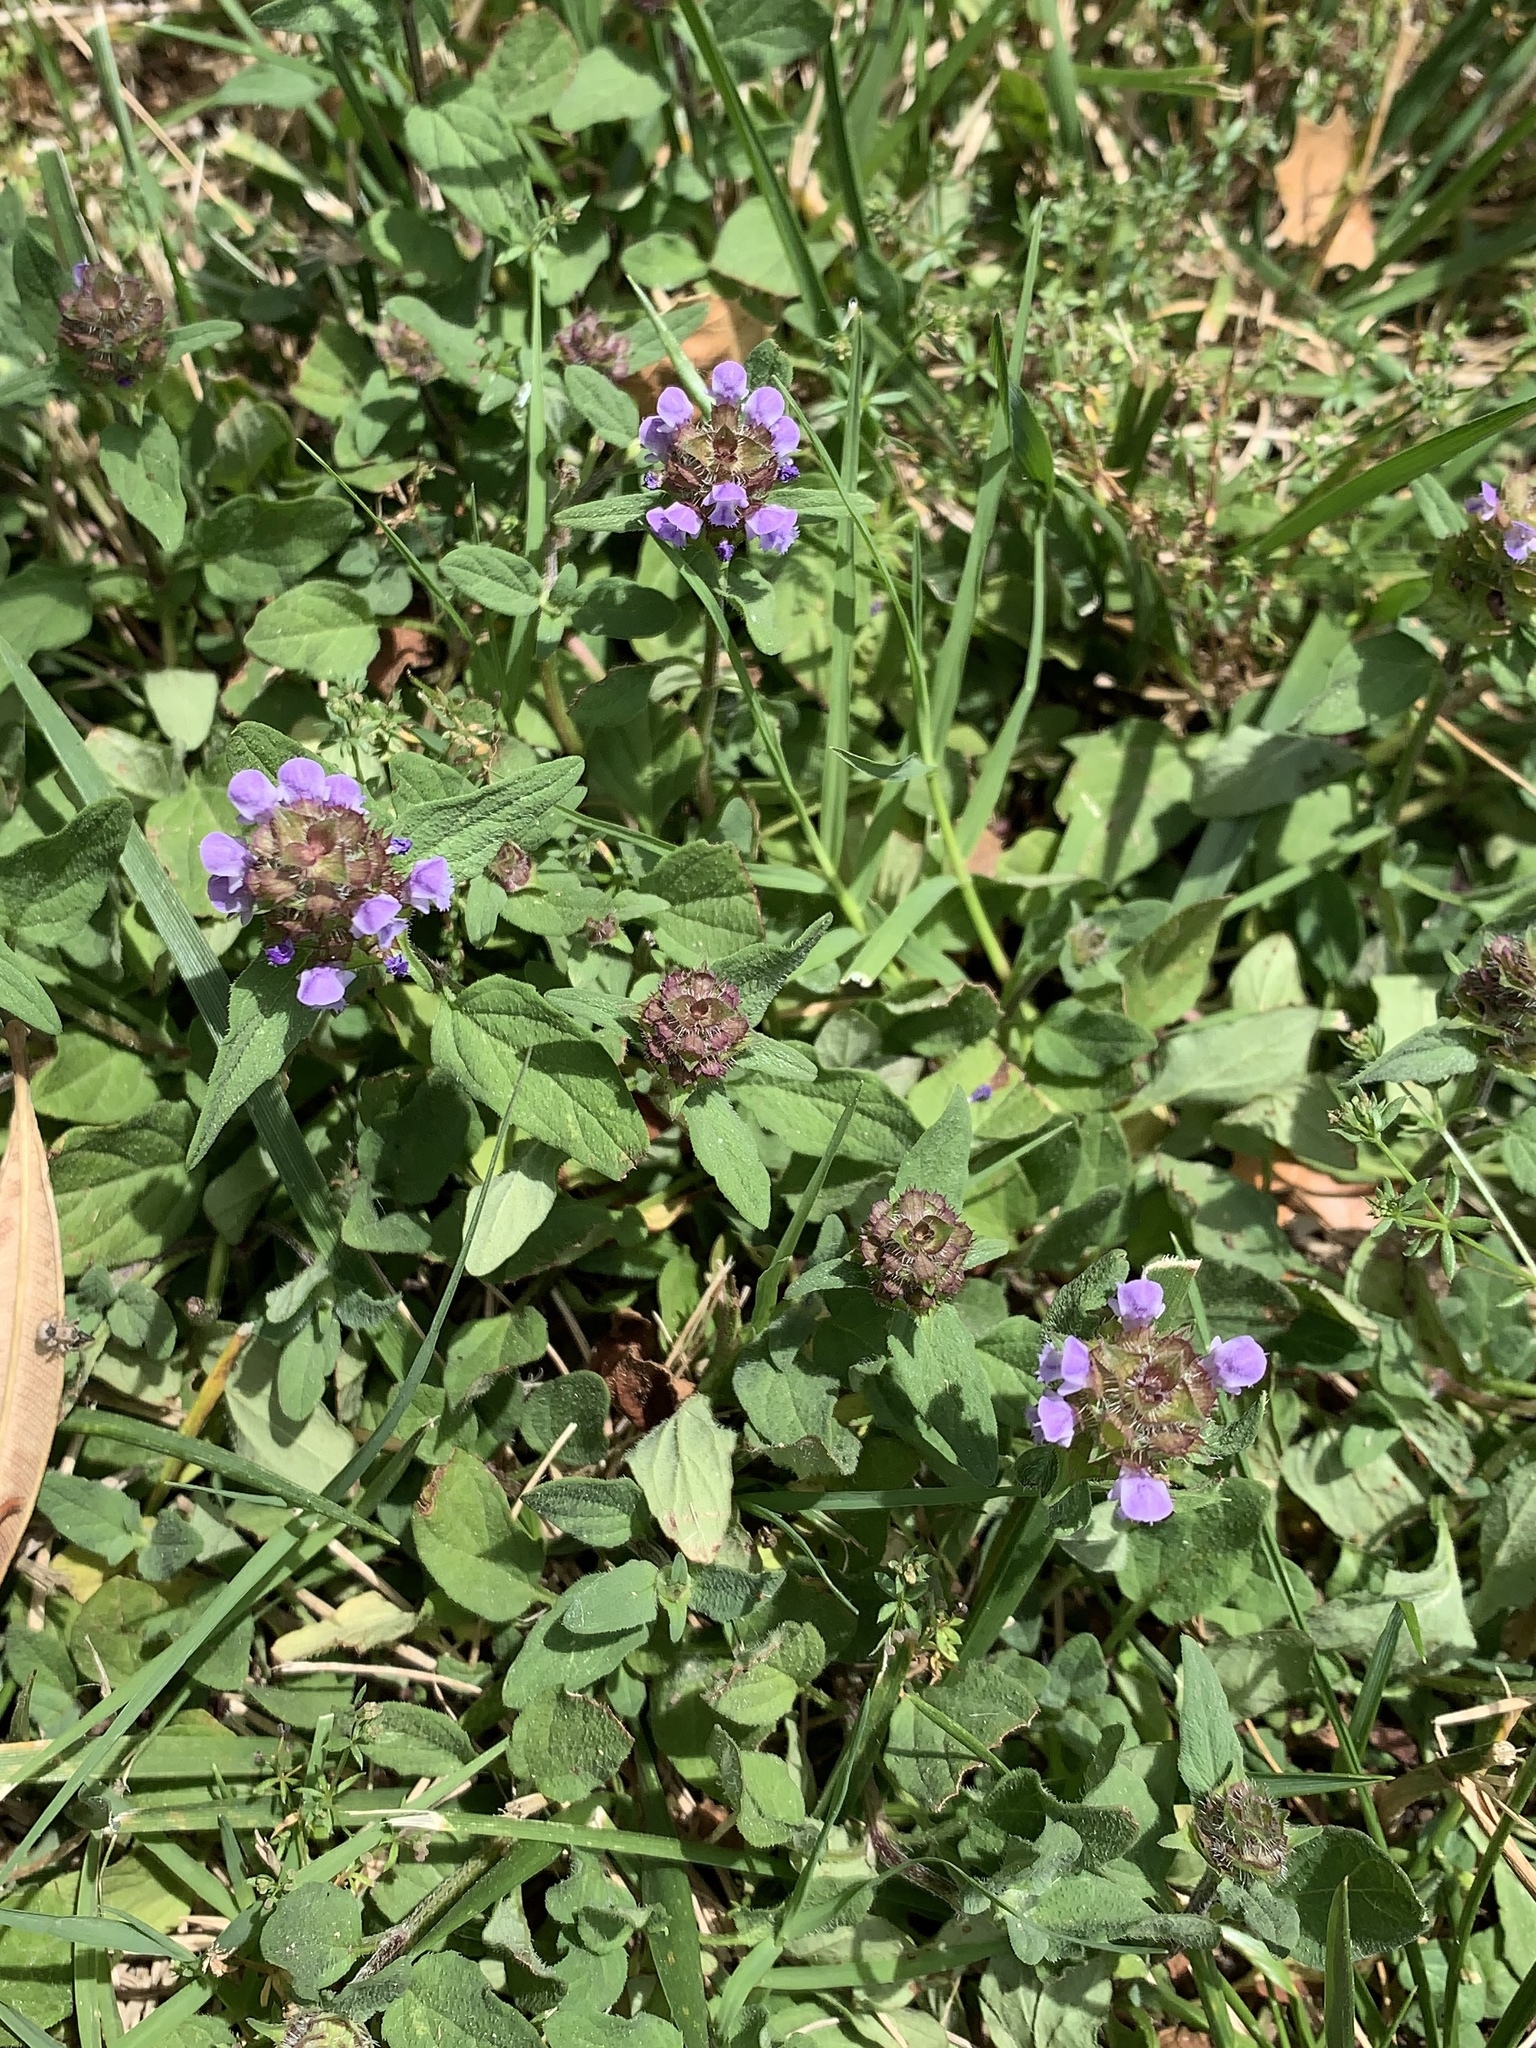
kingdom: Plantae
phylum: Tracheophyta
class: Magnoliopsida
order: Lamiales
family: Lamiaceae
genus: Prunella
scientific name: Prunella vulgaris
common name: Heal-all
